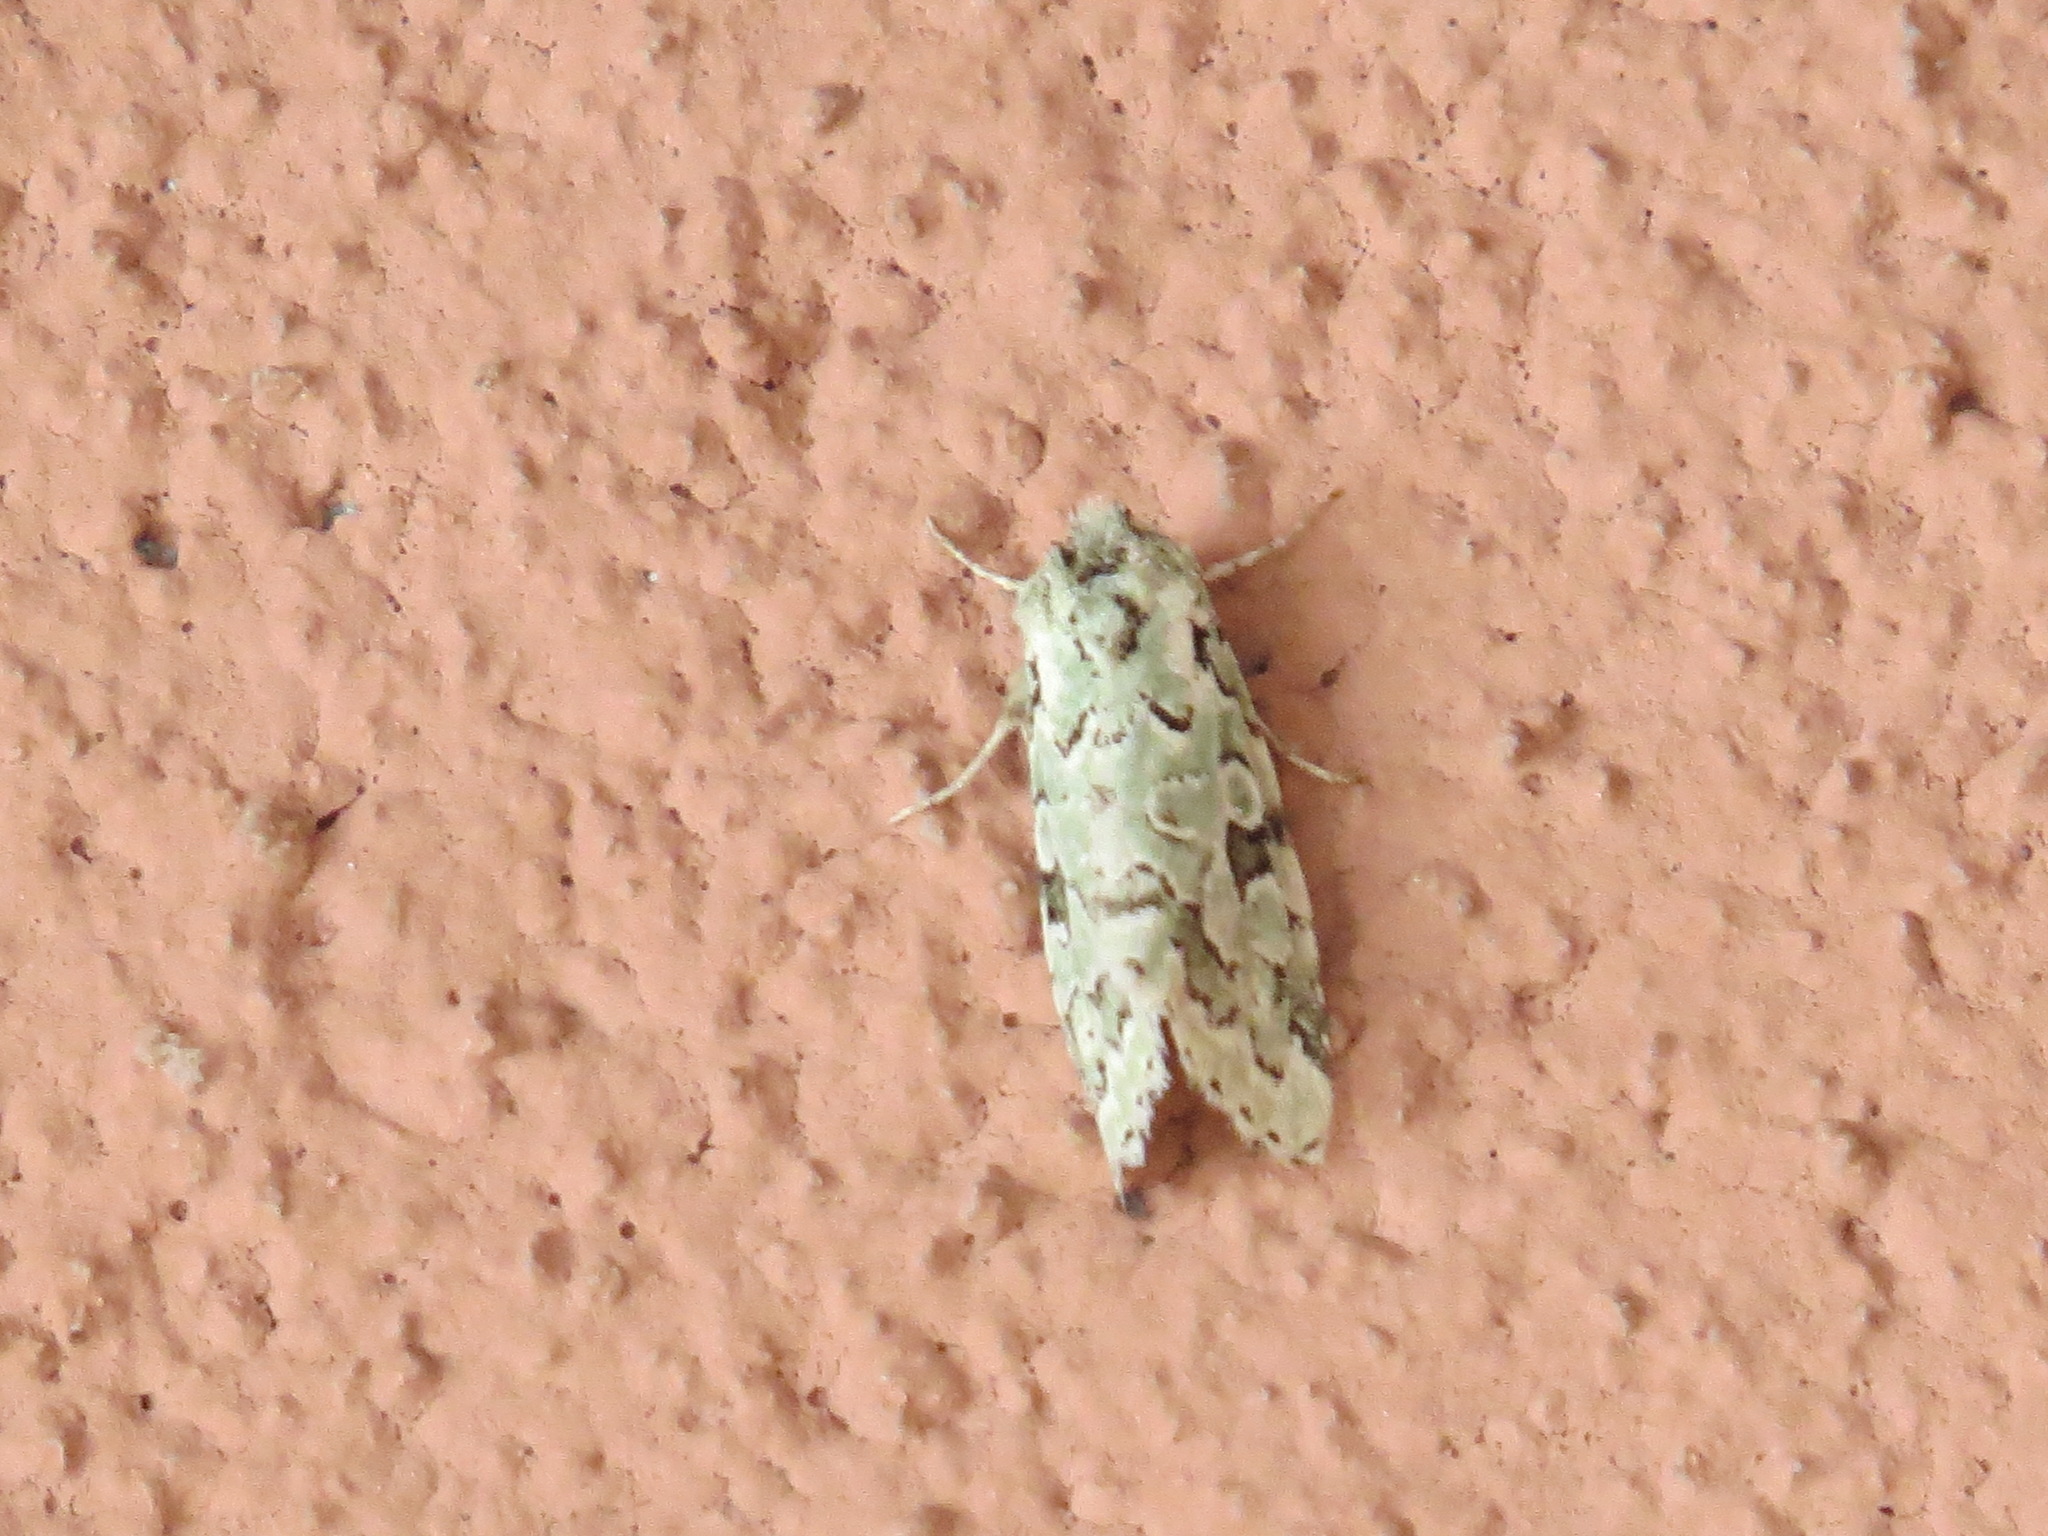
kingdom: Animalia
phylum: Arthropoda
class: Insecta
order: Lepidoptera
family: Noctuidae
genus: Bryolymnia
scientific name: Bryolymnia viridata
